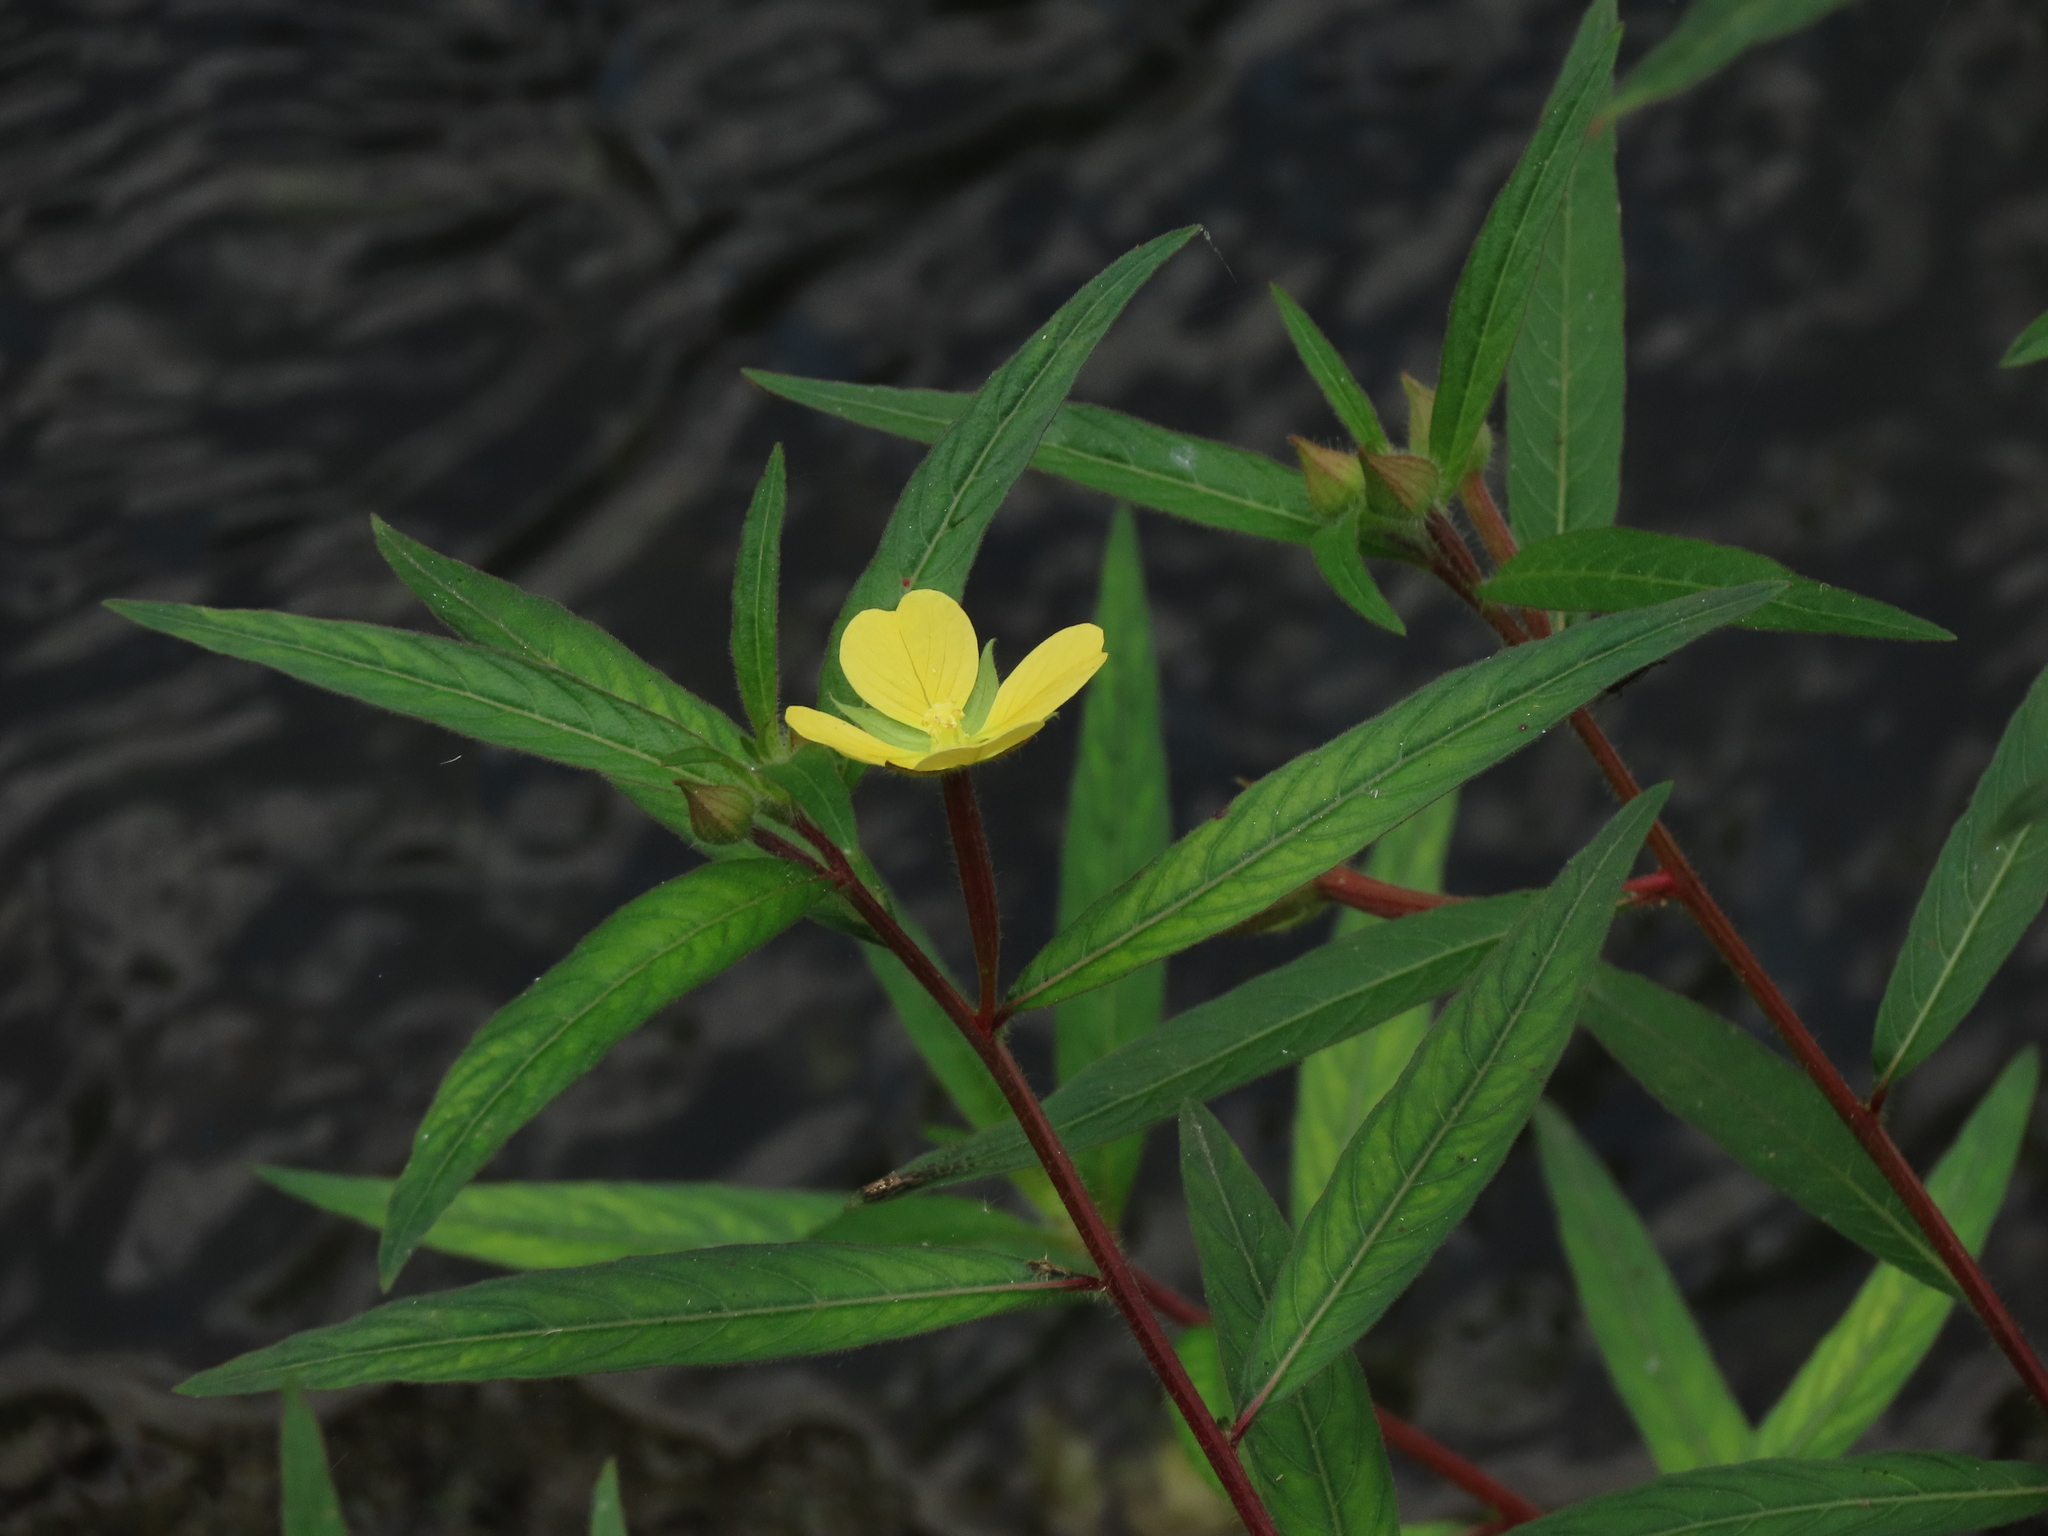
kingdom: Plantae
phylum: Tracheophyta
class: Magnoliopsida
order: Myrtales
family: Onagraceae
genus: Ludwigia
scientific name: Ludwigia octovalvis
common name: Water-primrose
